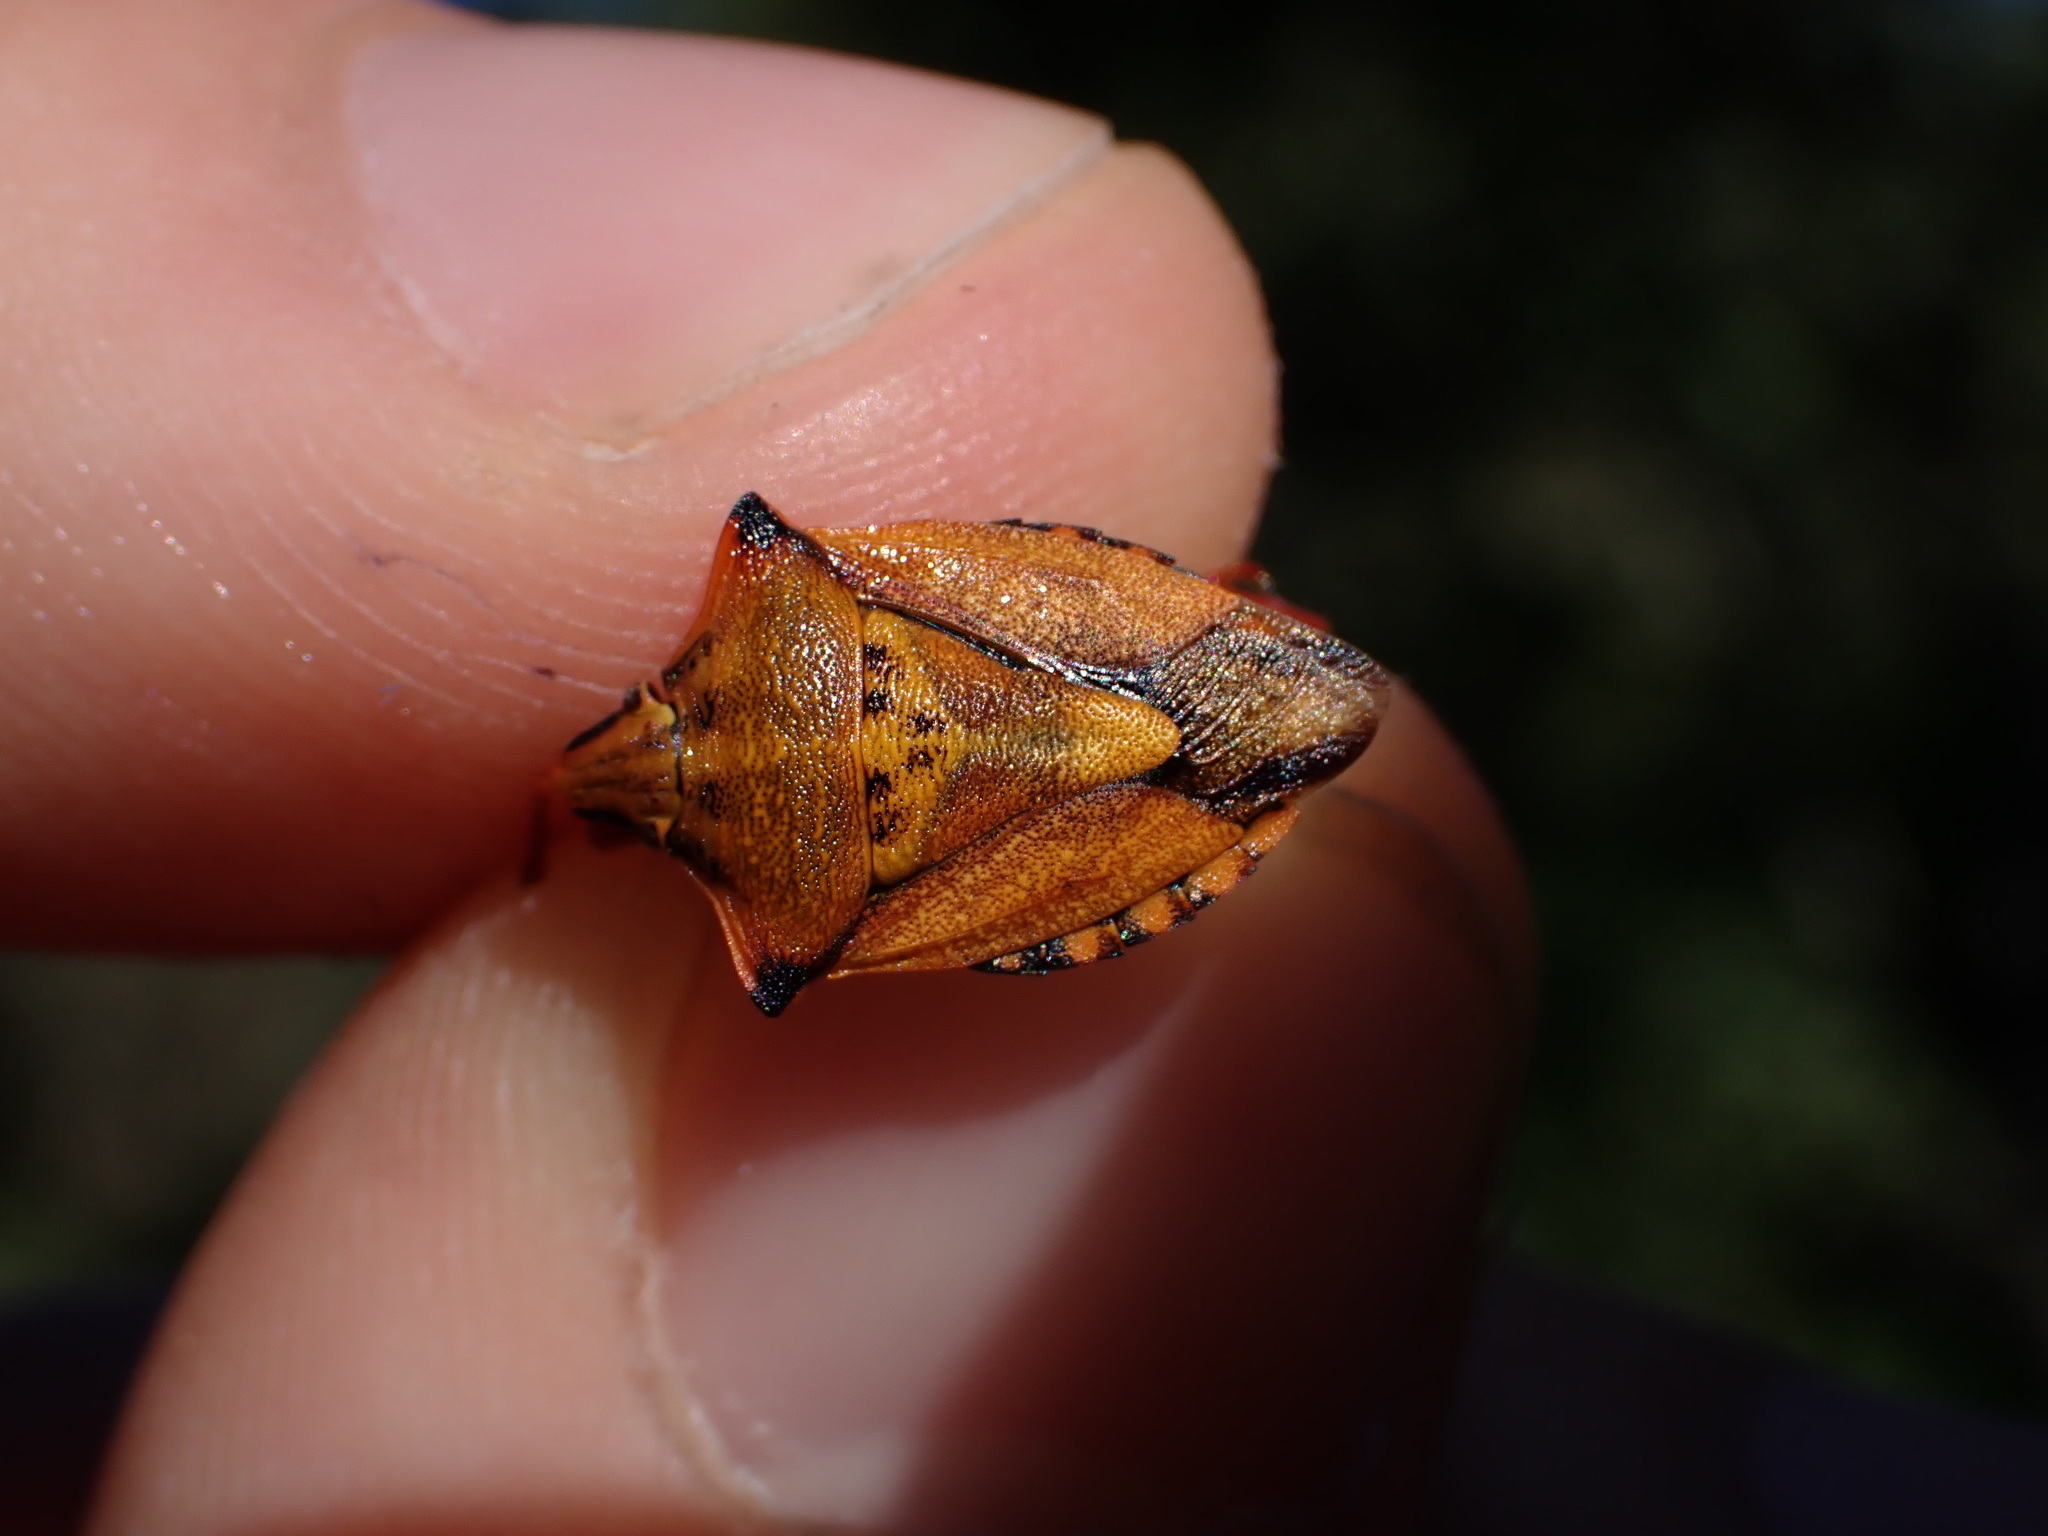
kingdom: Animalia
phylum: Arthropoda
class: Insecta
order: Hemiptera
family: Pentatomidae
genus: Carpocoris
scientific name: Carpocoris mediterraneus
